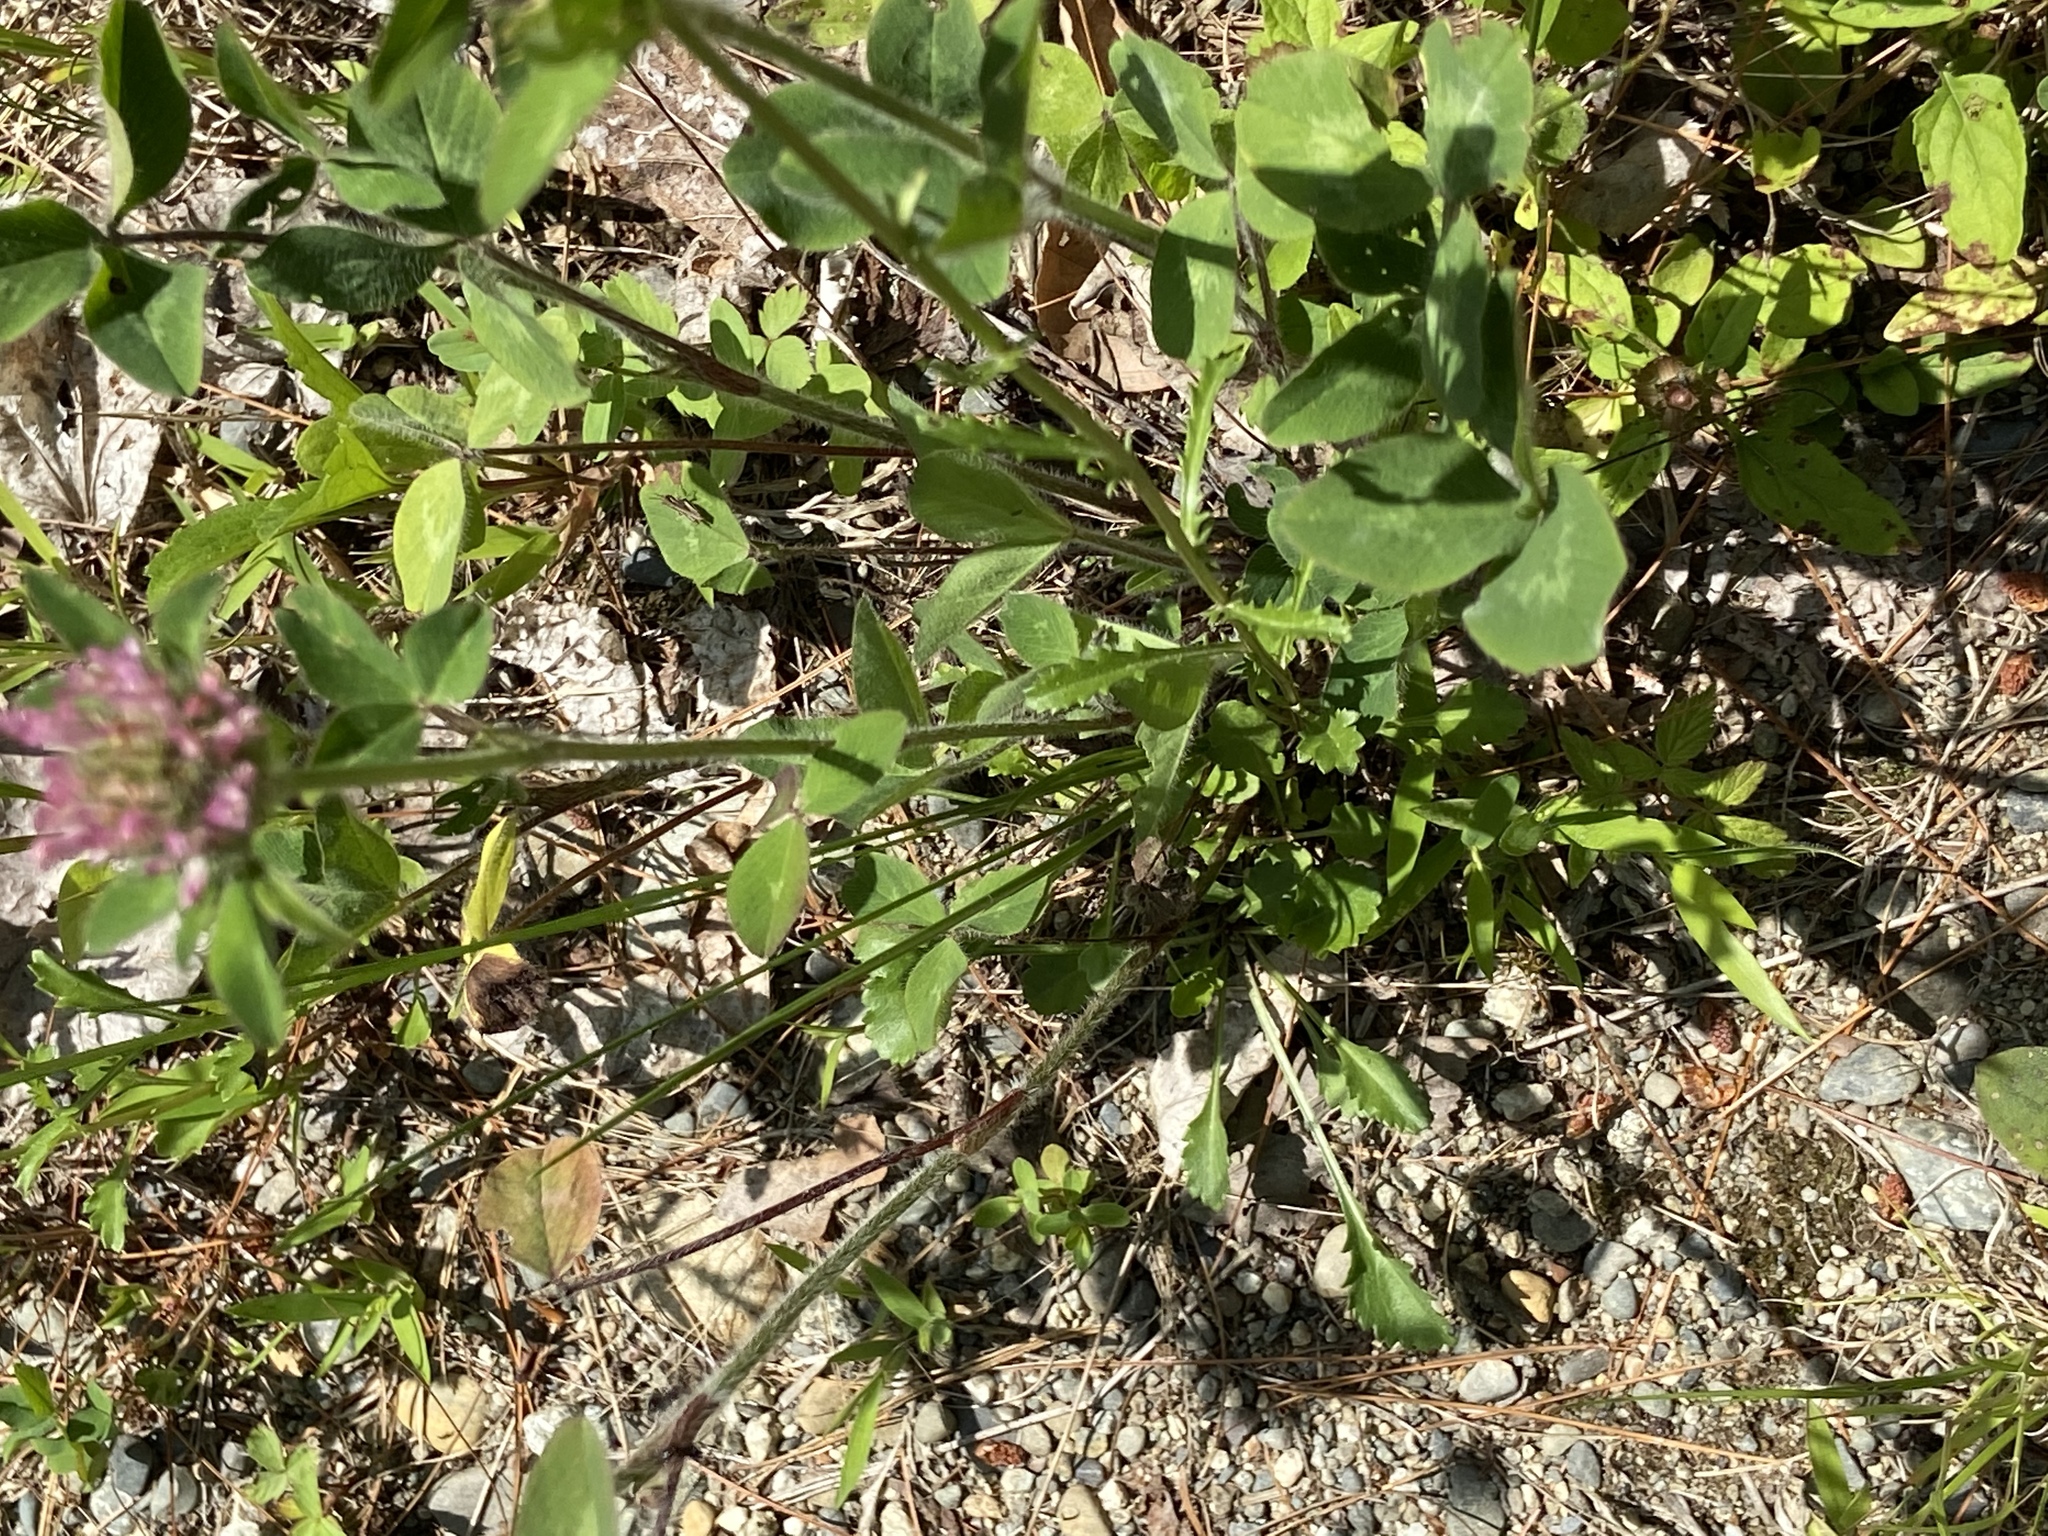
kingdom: Plantae
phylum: Tracheophyta
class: Magnoliopsida
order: Fabales
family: Fabaceae
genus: Trifolium
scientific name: Trifolium pratense
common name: Red clover
